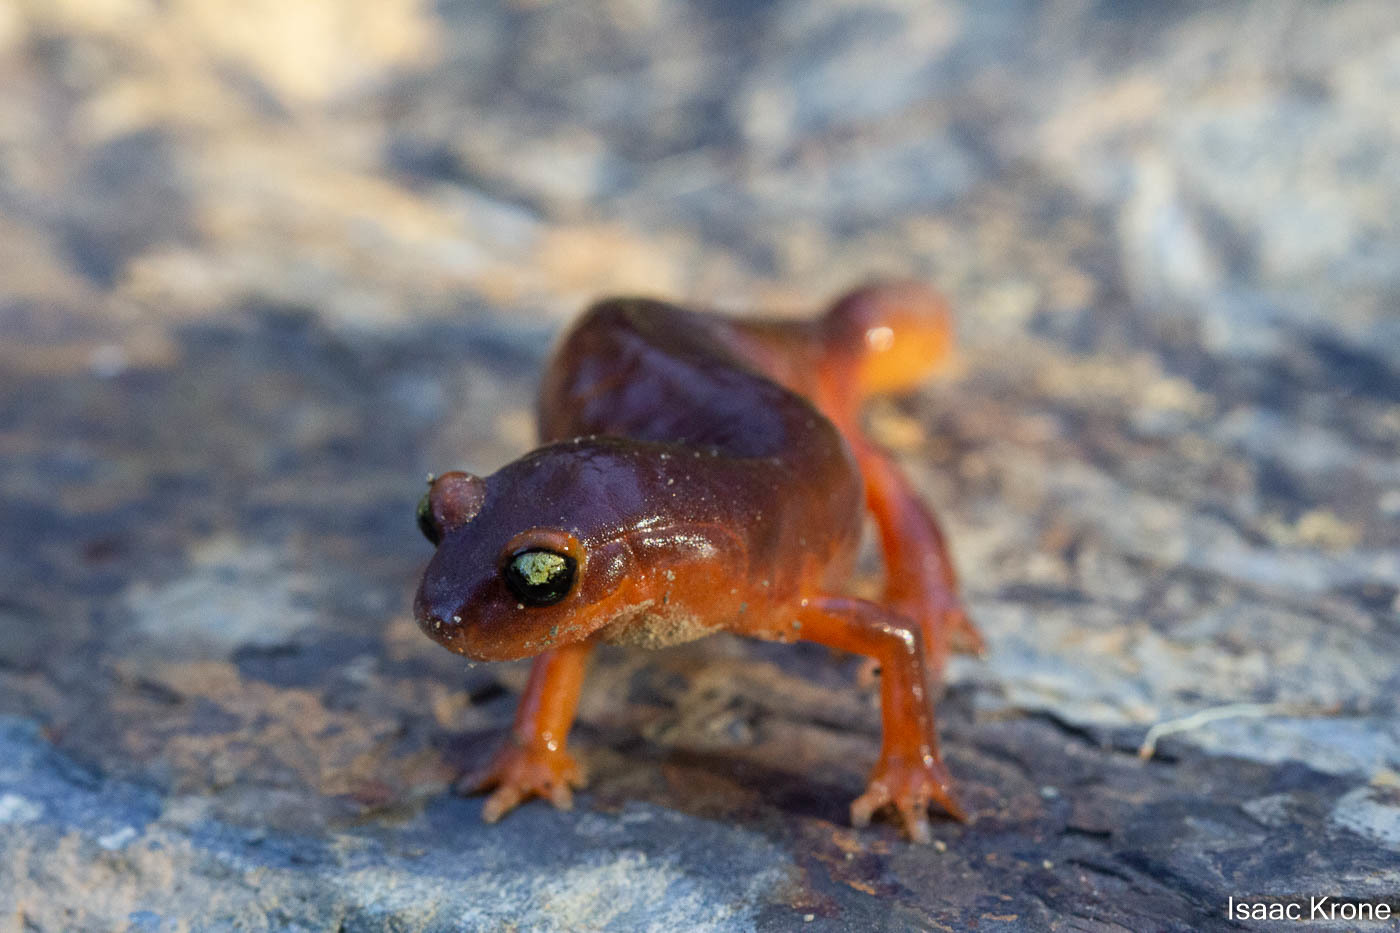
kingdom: Animalia
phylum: Chordata
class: Amphibia
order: Caudata
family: Plethodontidae
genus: Ensatina
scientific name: Ensatina eschscholtzii
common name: Ensatina
